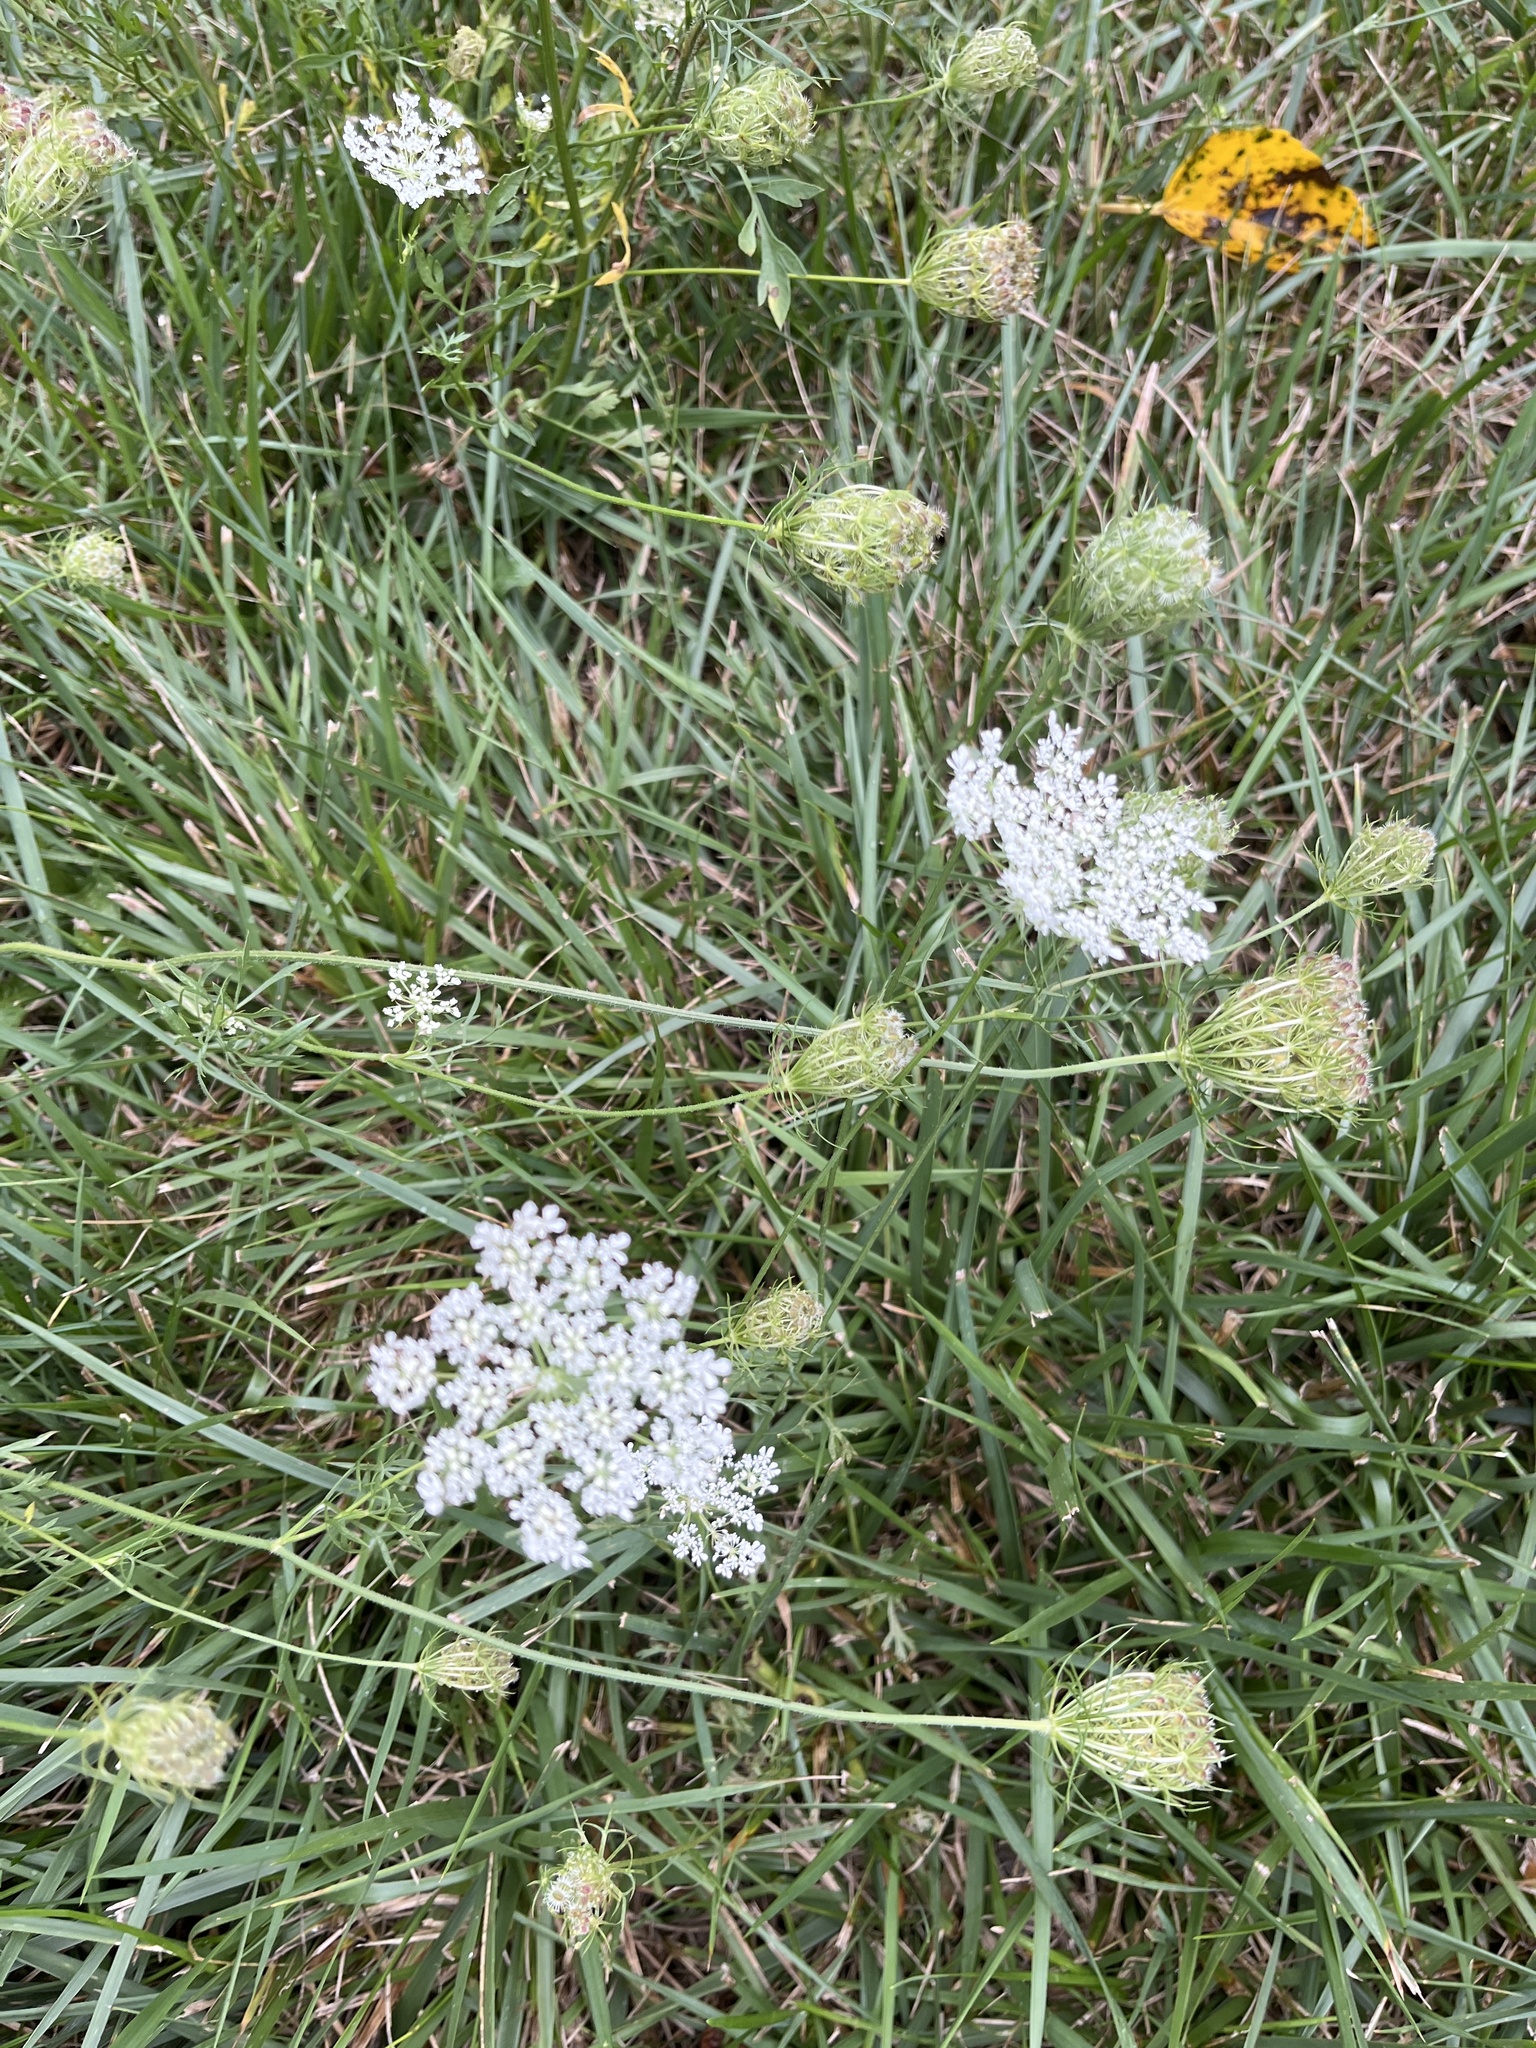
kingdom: Plantae
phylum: Tracheophyta
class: Magnoliopsida
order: Apiales
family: Apiaceae
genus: Daucus
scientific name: Daucus carota
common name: Wild carrot
